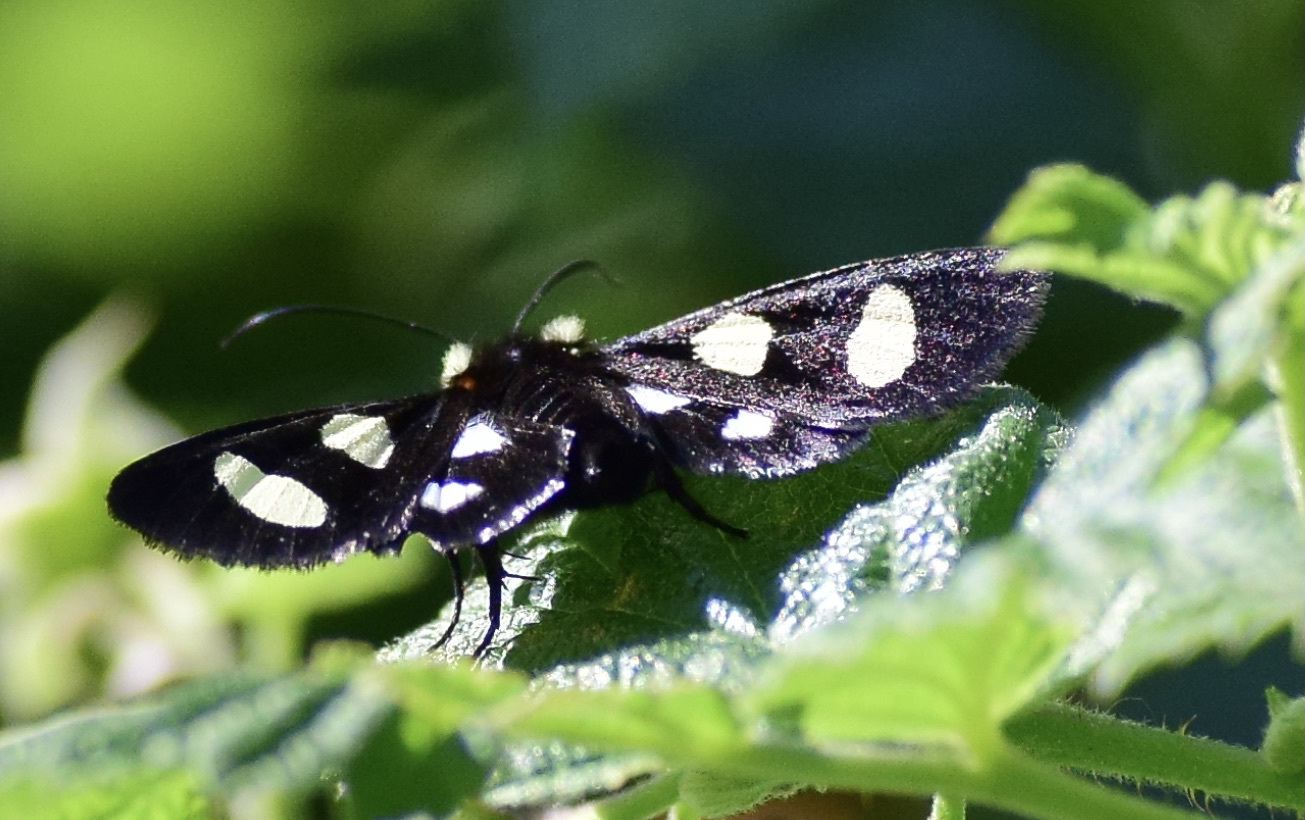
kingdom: Animalia
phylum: Arthropoda
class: Insecta
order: Lepidoptera
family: Noctuidae
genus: Alypia
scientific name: Alypia octomaculata
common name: Eight-spotted forester
